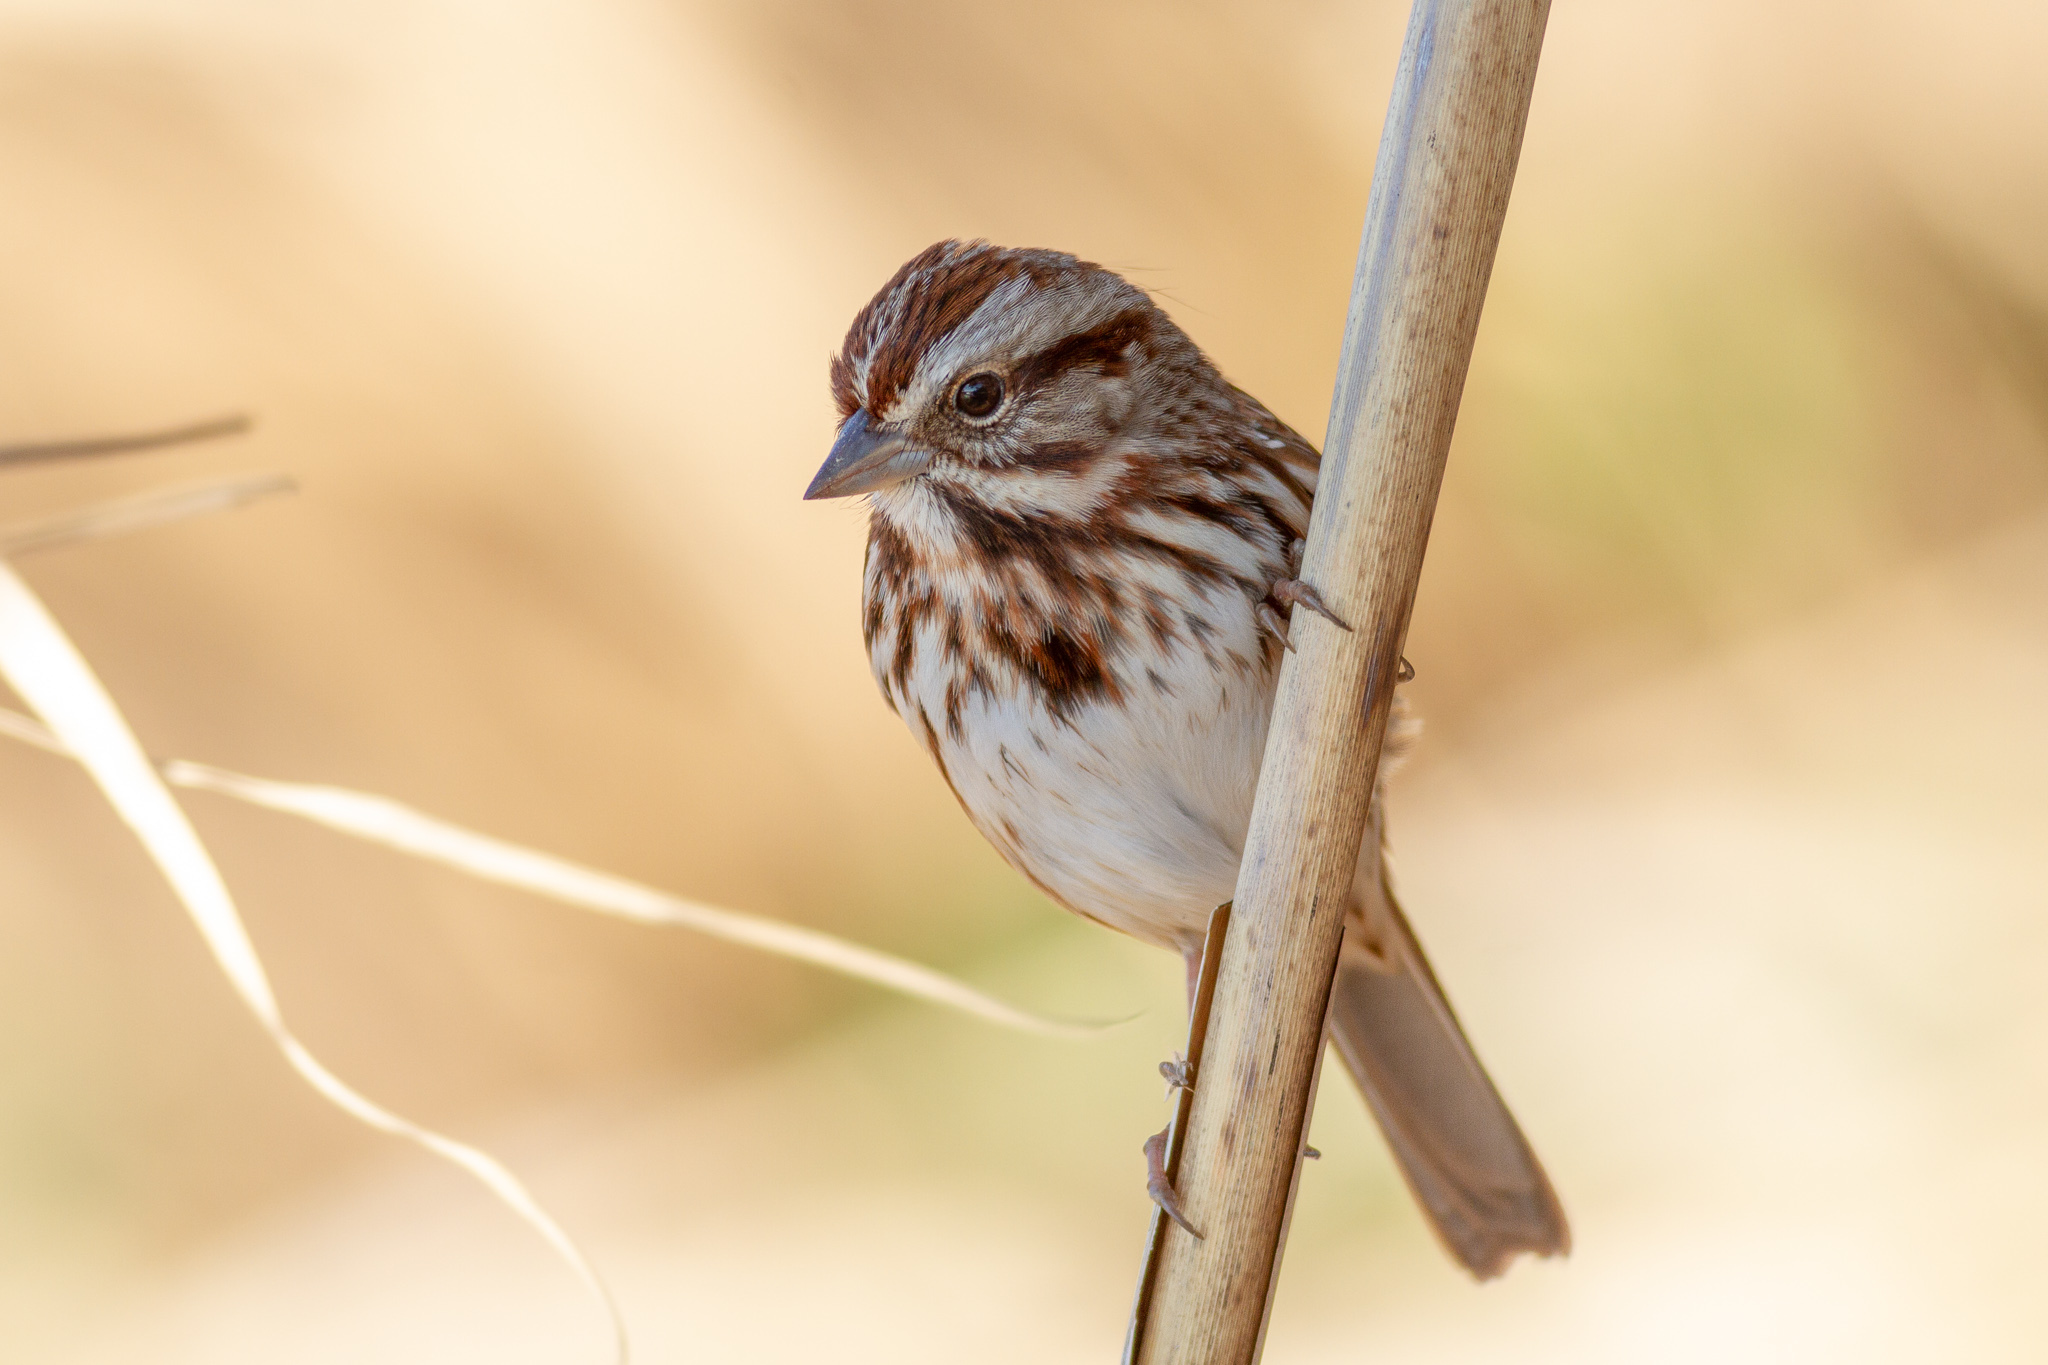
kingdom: Animalia
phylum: Chordata
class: Aves
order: Passeriformes
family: Passerellidae
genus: Melospiza
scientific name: Melospiza melodia
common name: Song sparrow
